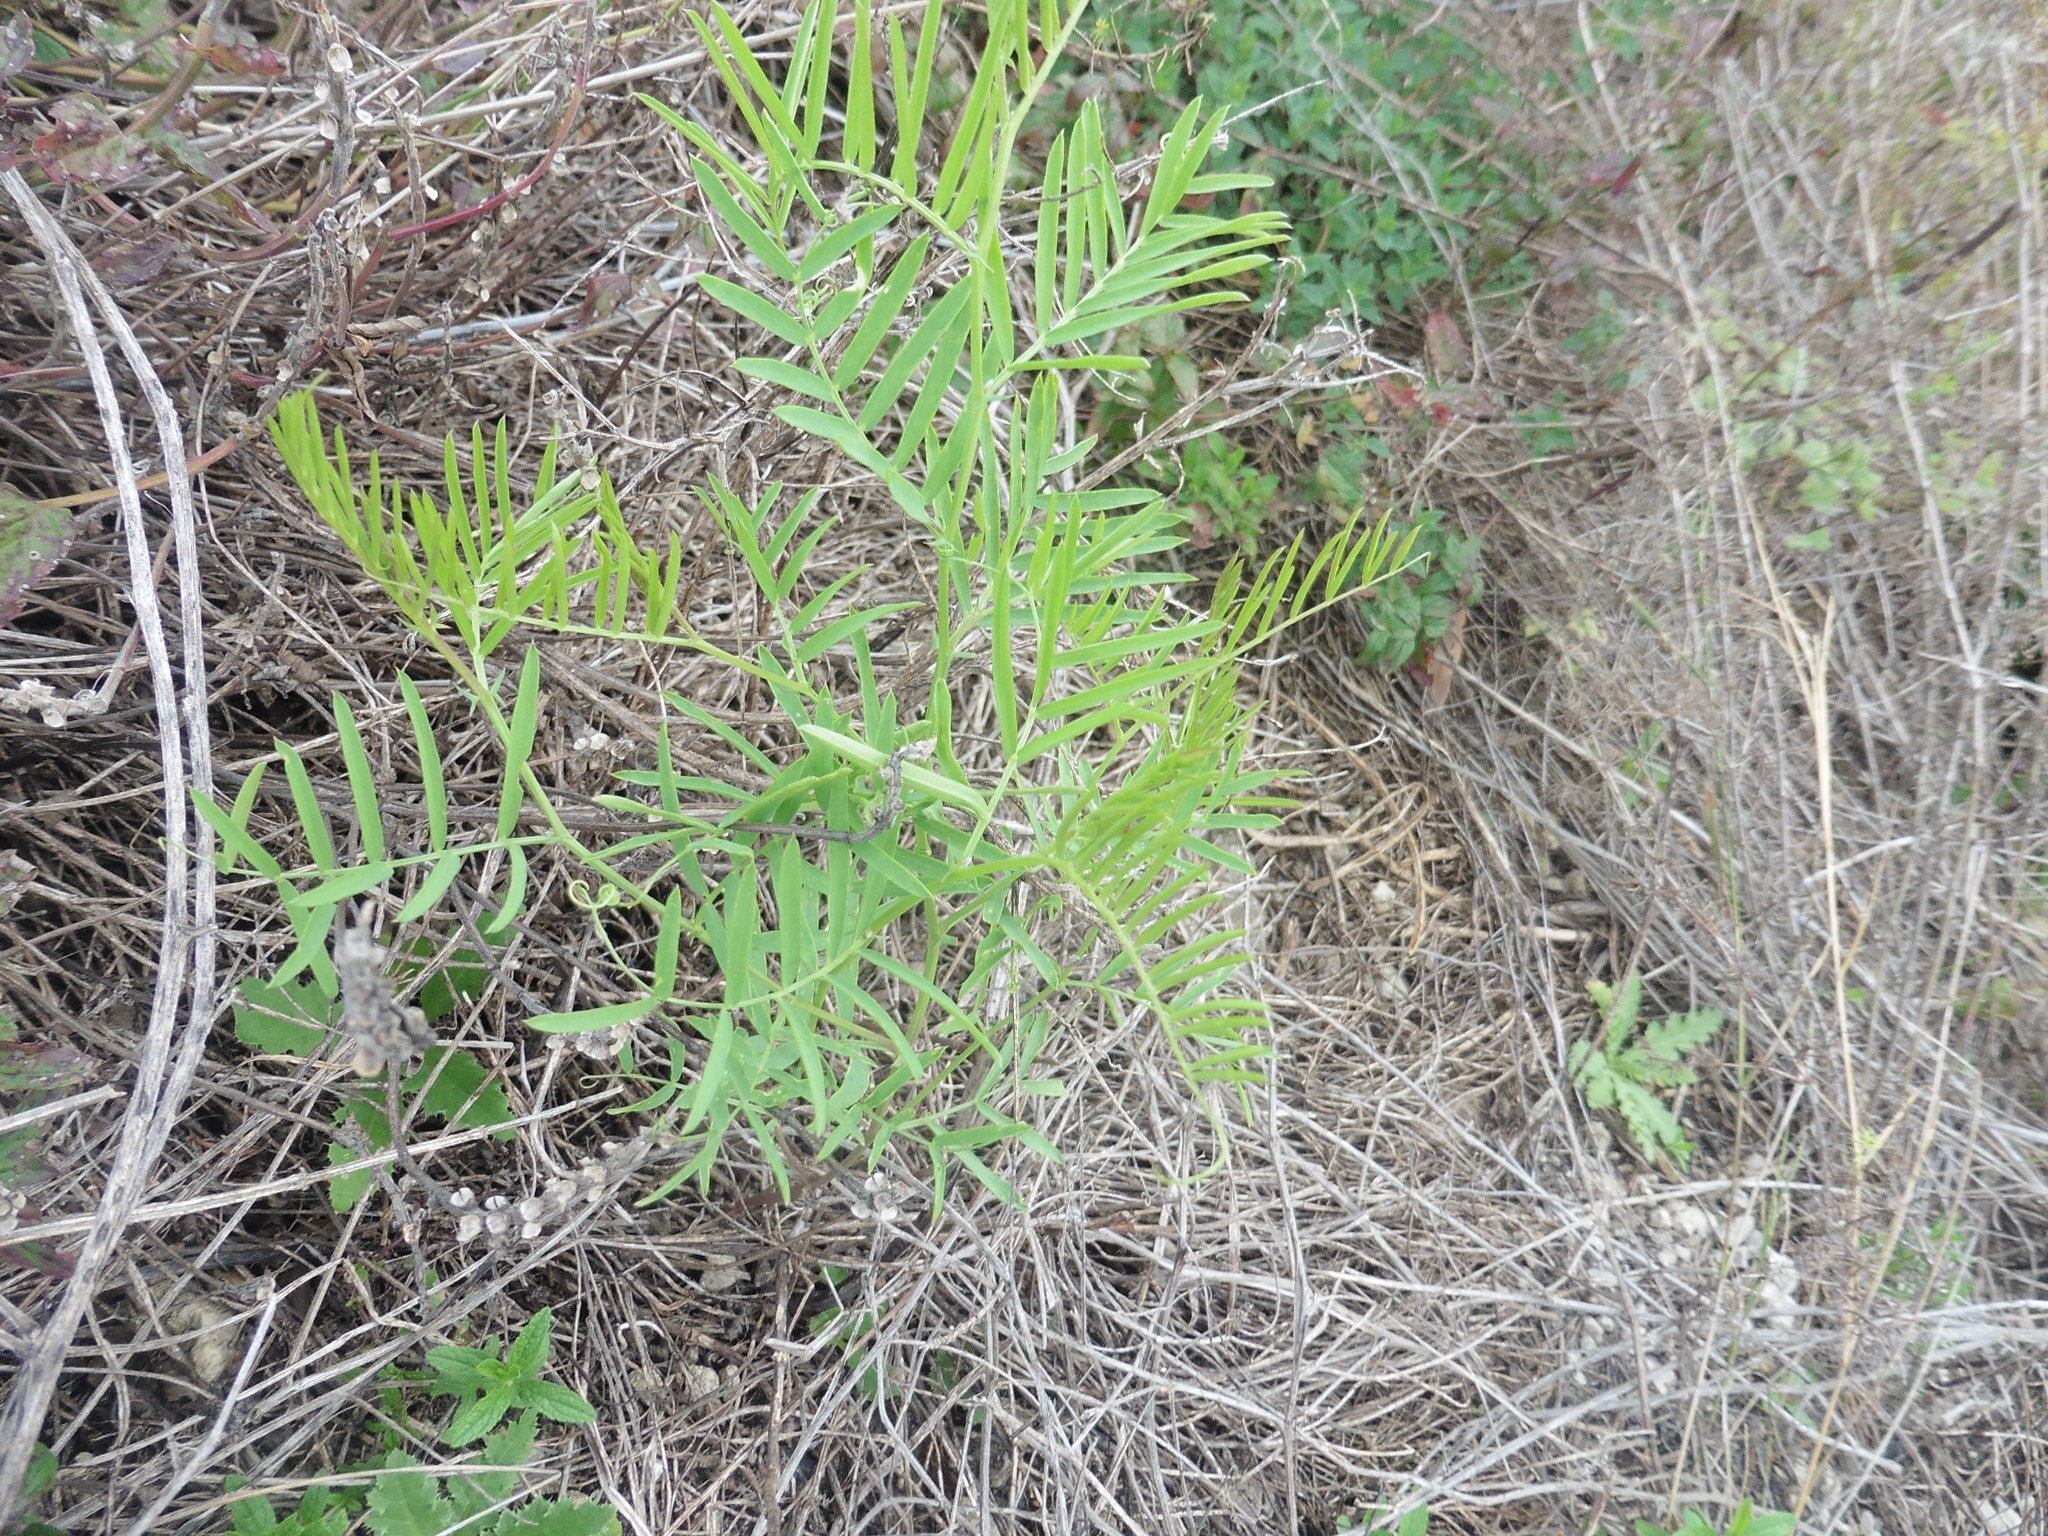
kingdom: Plantae
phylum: Tracheophyta
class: Magnoliopsida
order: Fabales
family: Fabaceae
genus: Vicia
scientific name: Vicia tenuifolia
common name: Fine-leaved vetch
